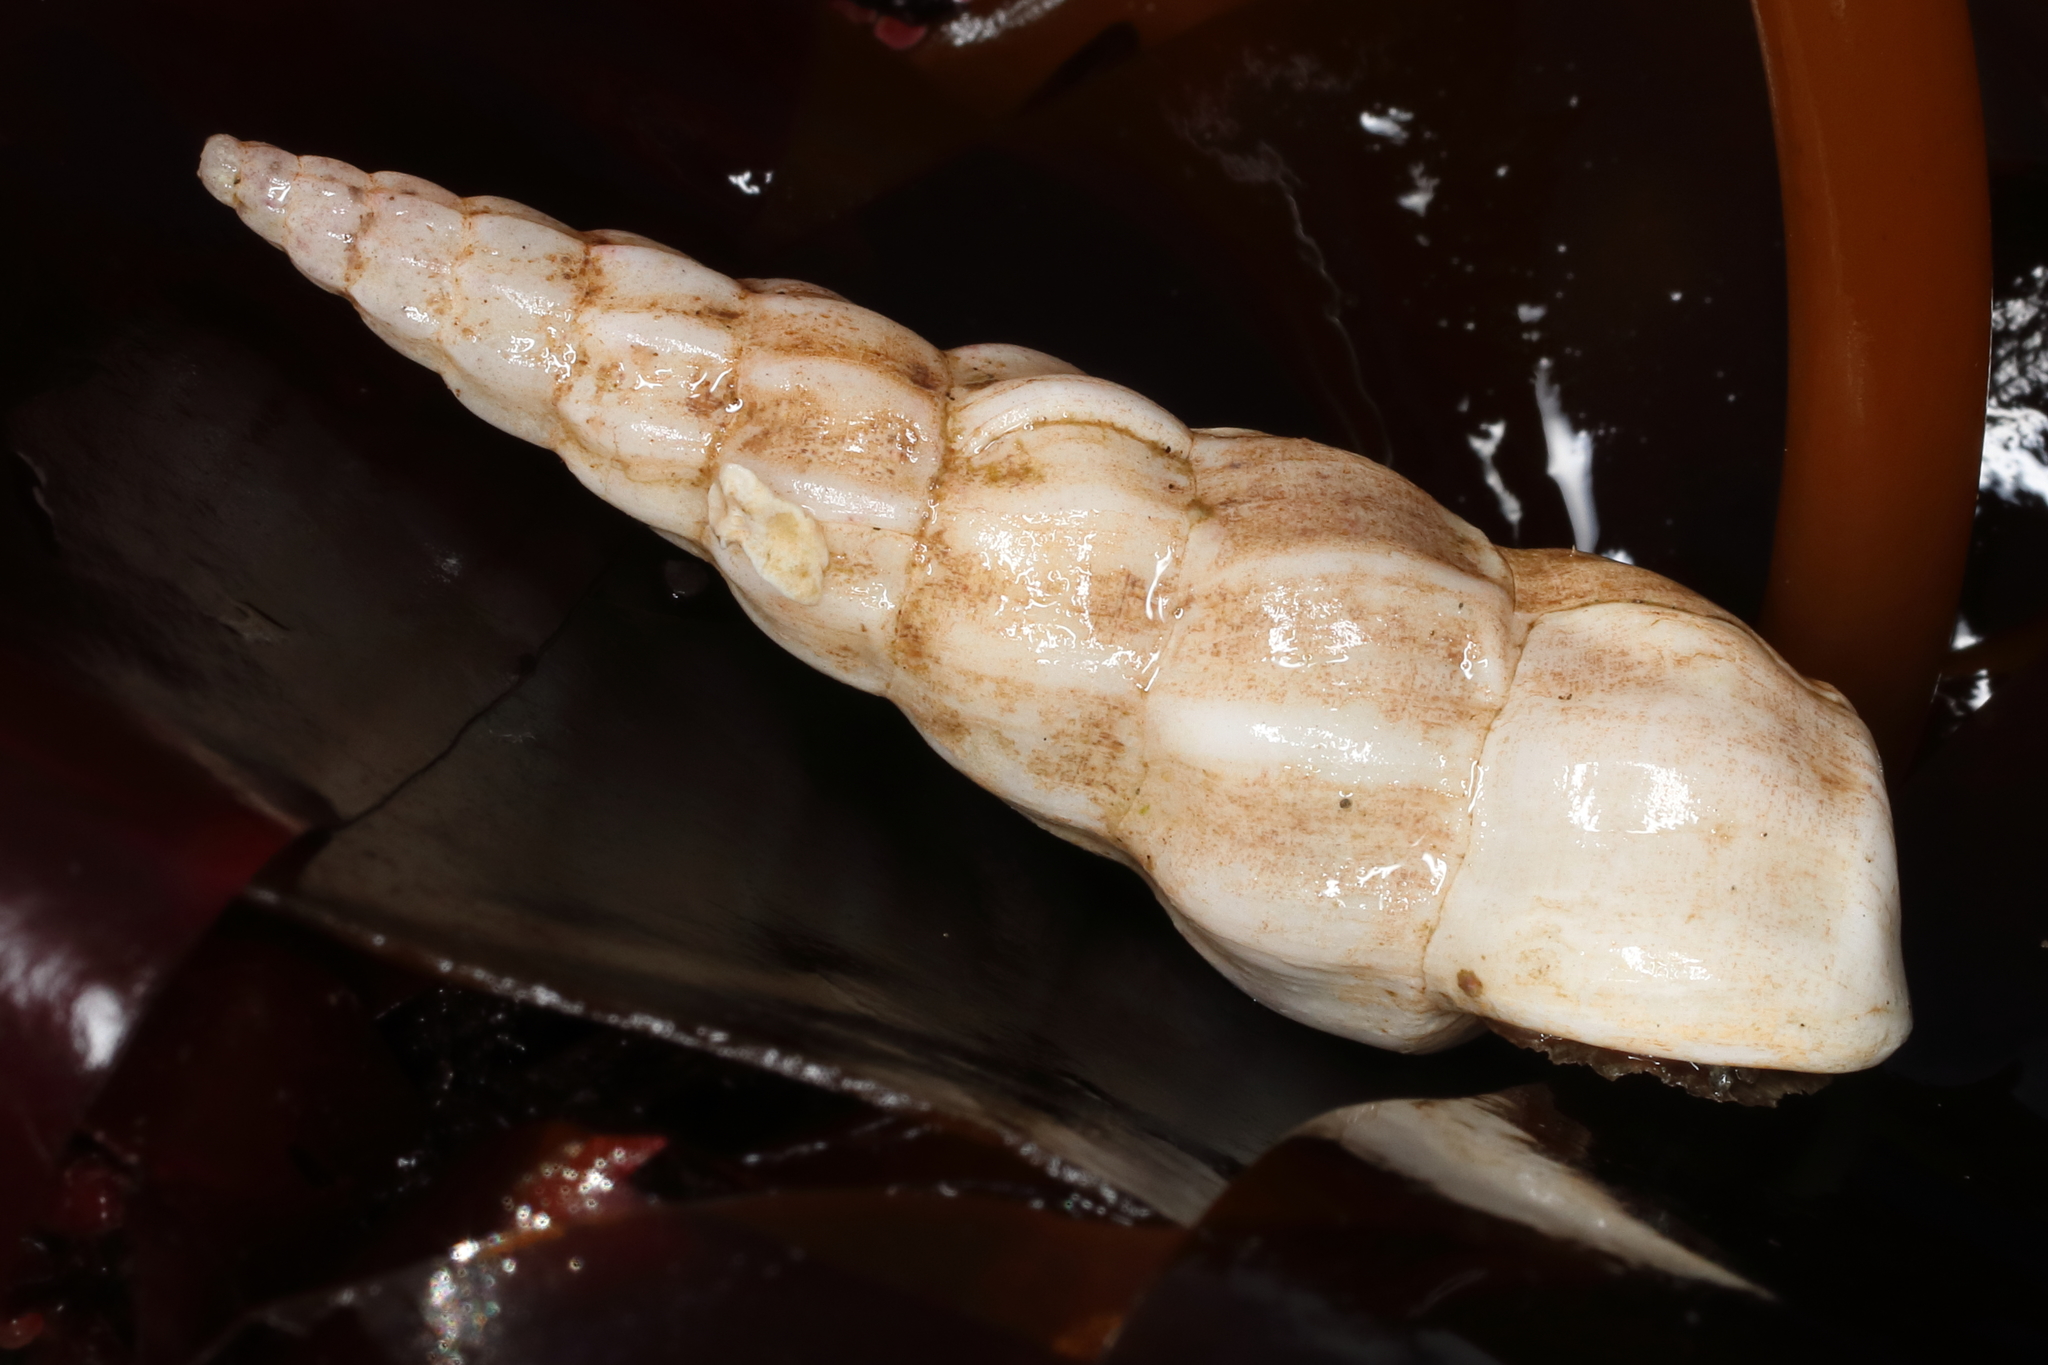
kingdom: Animalia
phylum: Mollusca
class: Gastropoda
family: Epitoniidae
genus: Opalia
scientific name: Opalia wroblewskyi
